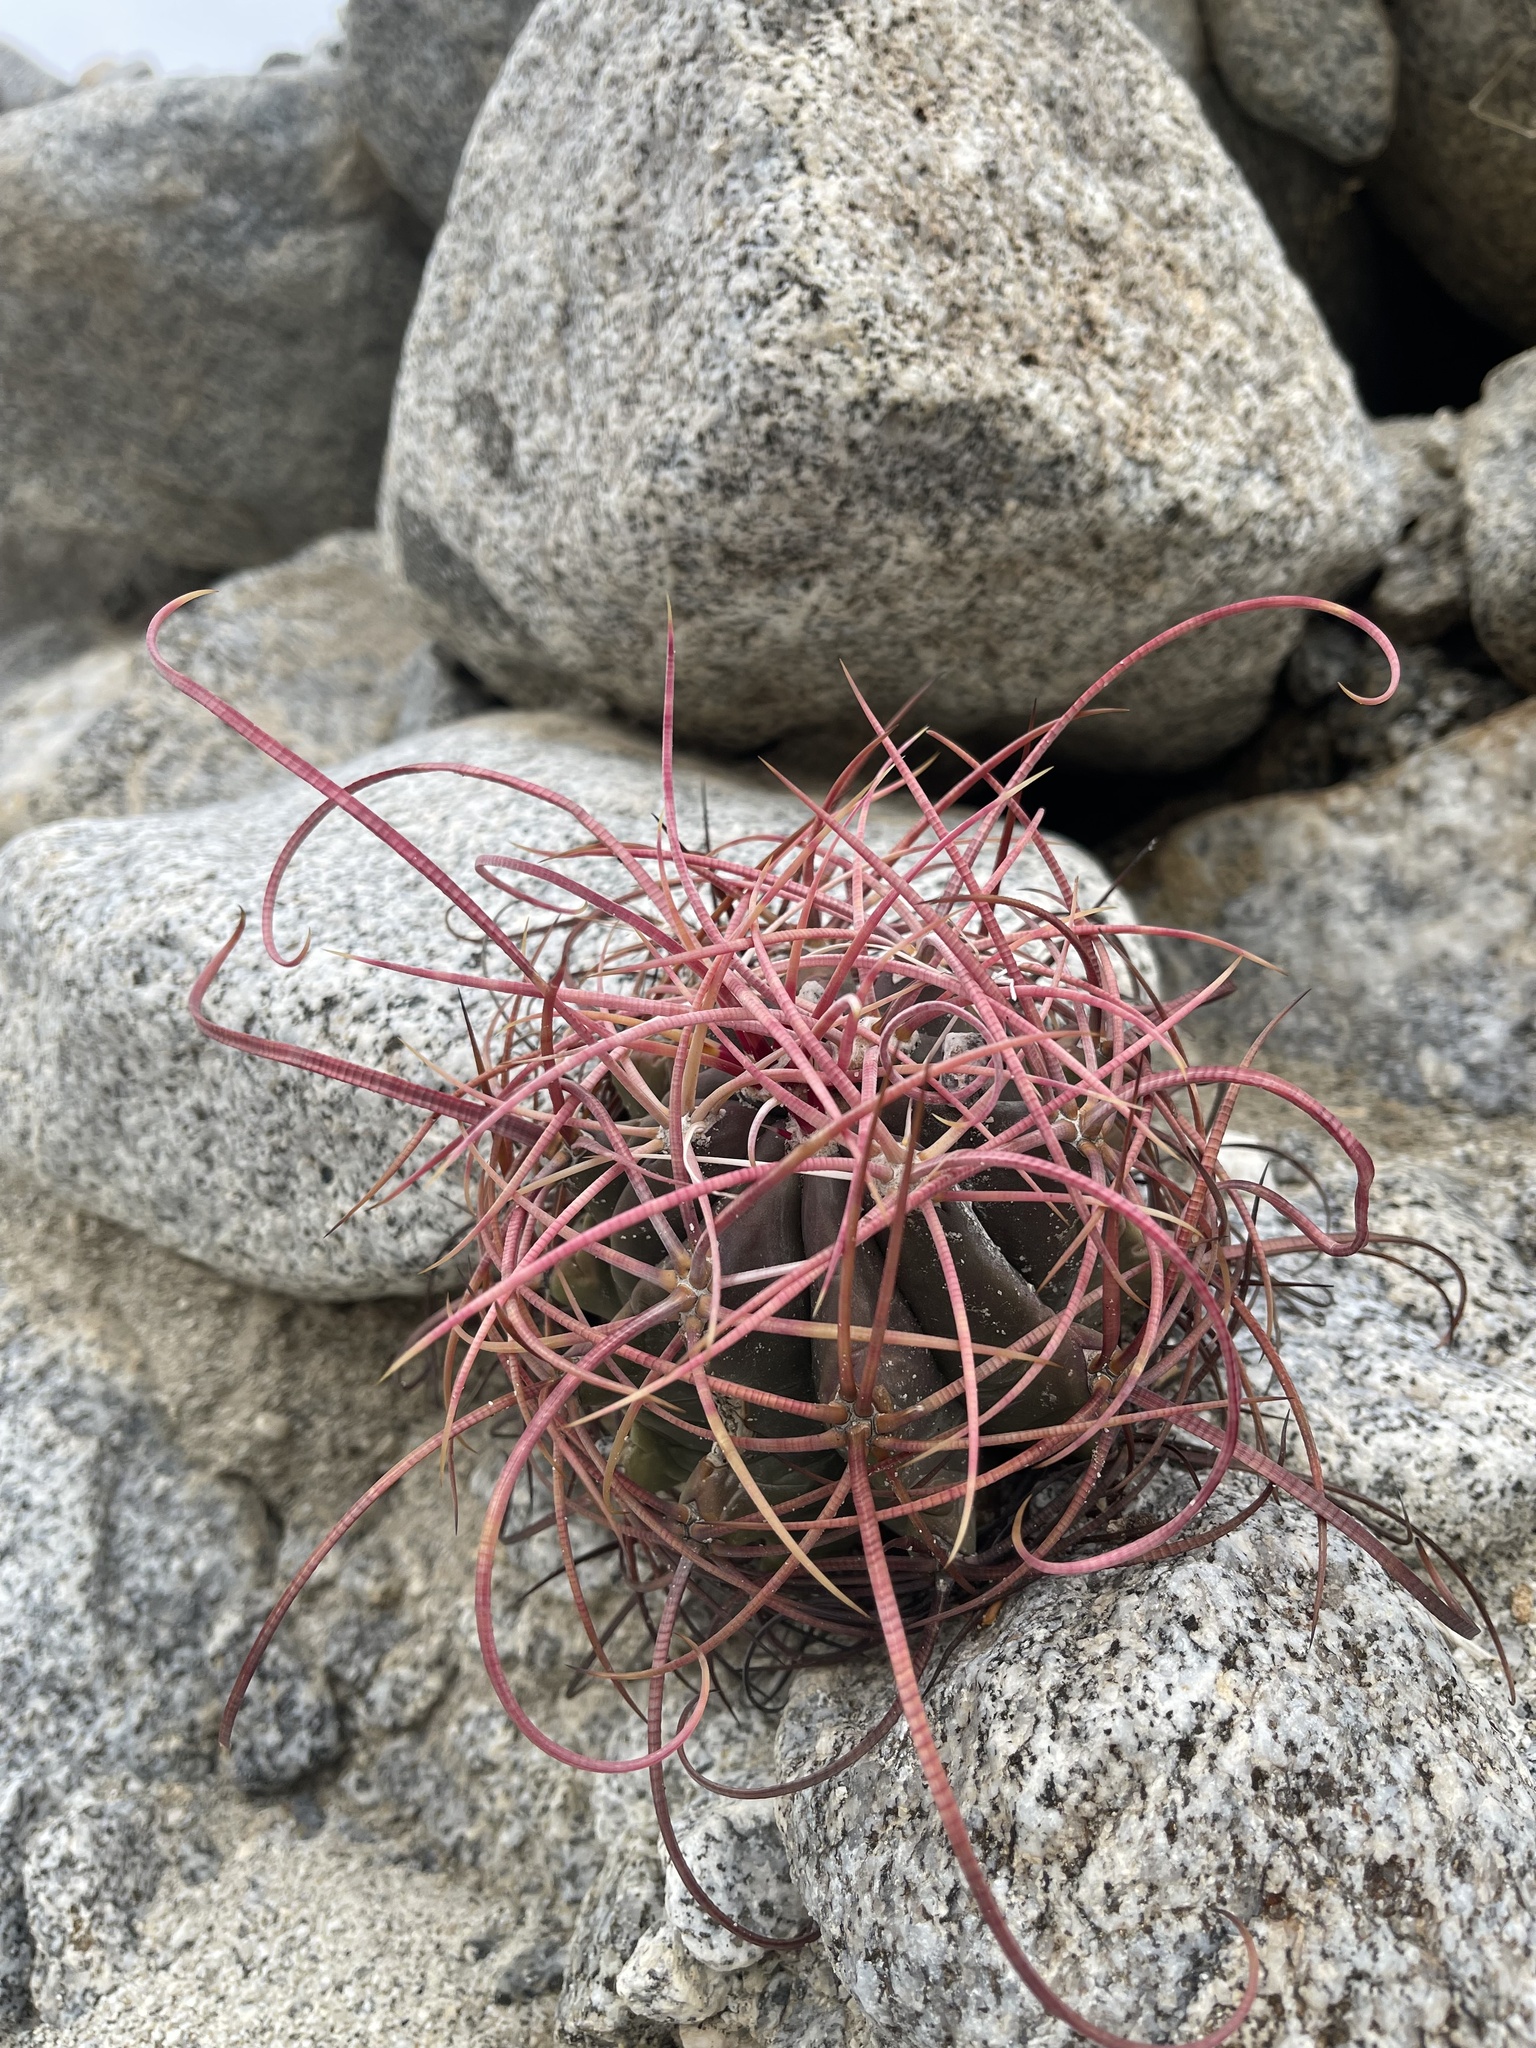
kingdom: Plantae
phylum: Tracheophyta
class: Magnoliopsida
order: Caryophyllales
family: Cactaceae
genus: Ferocactus
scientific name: Ferocactus cylindraceus
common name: California barrel cactus
